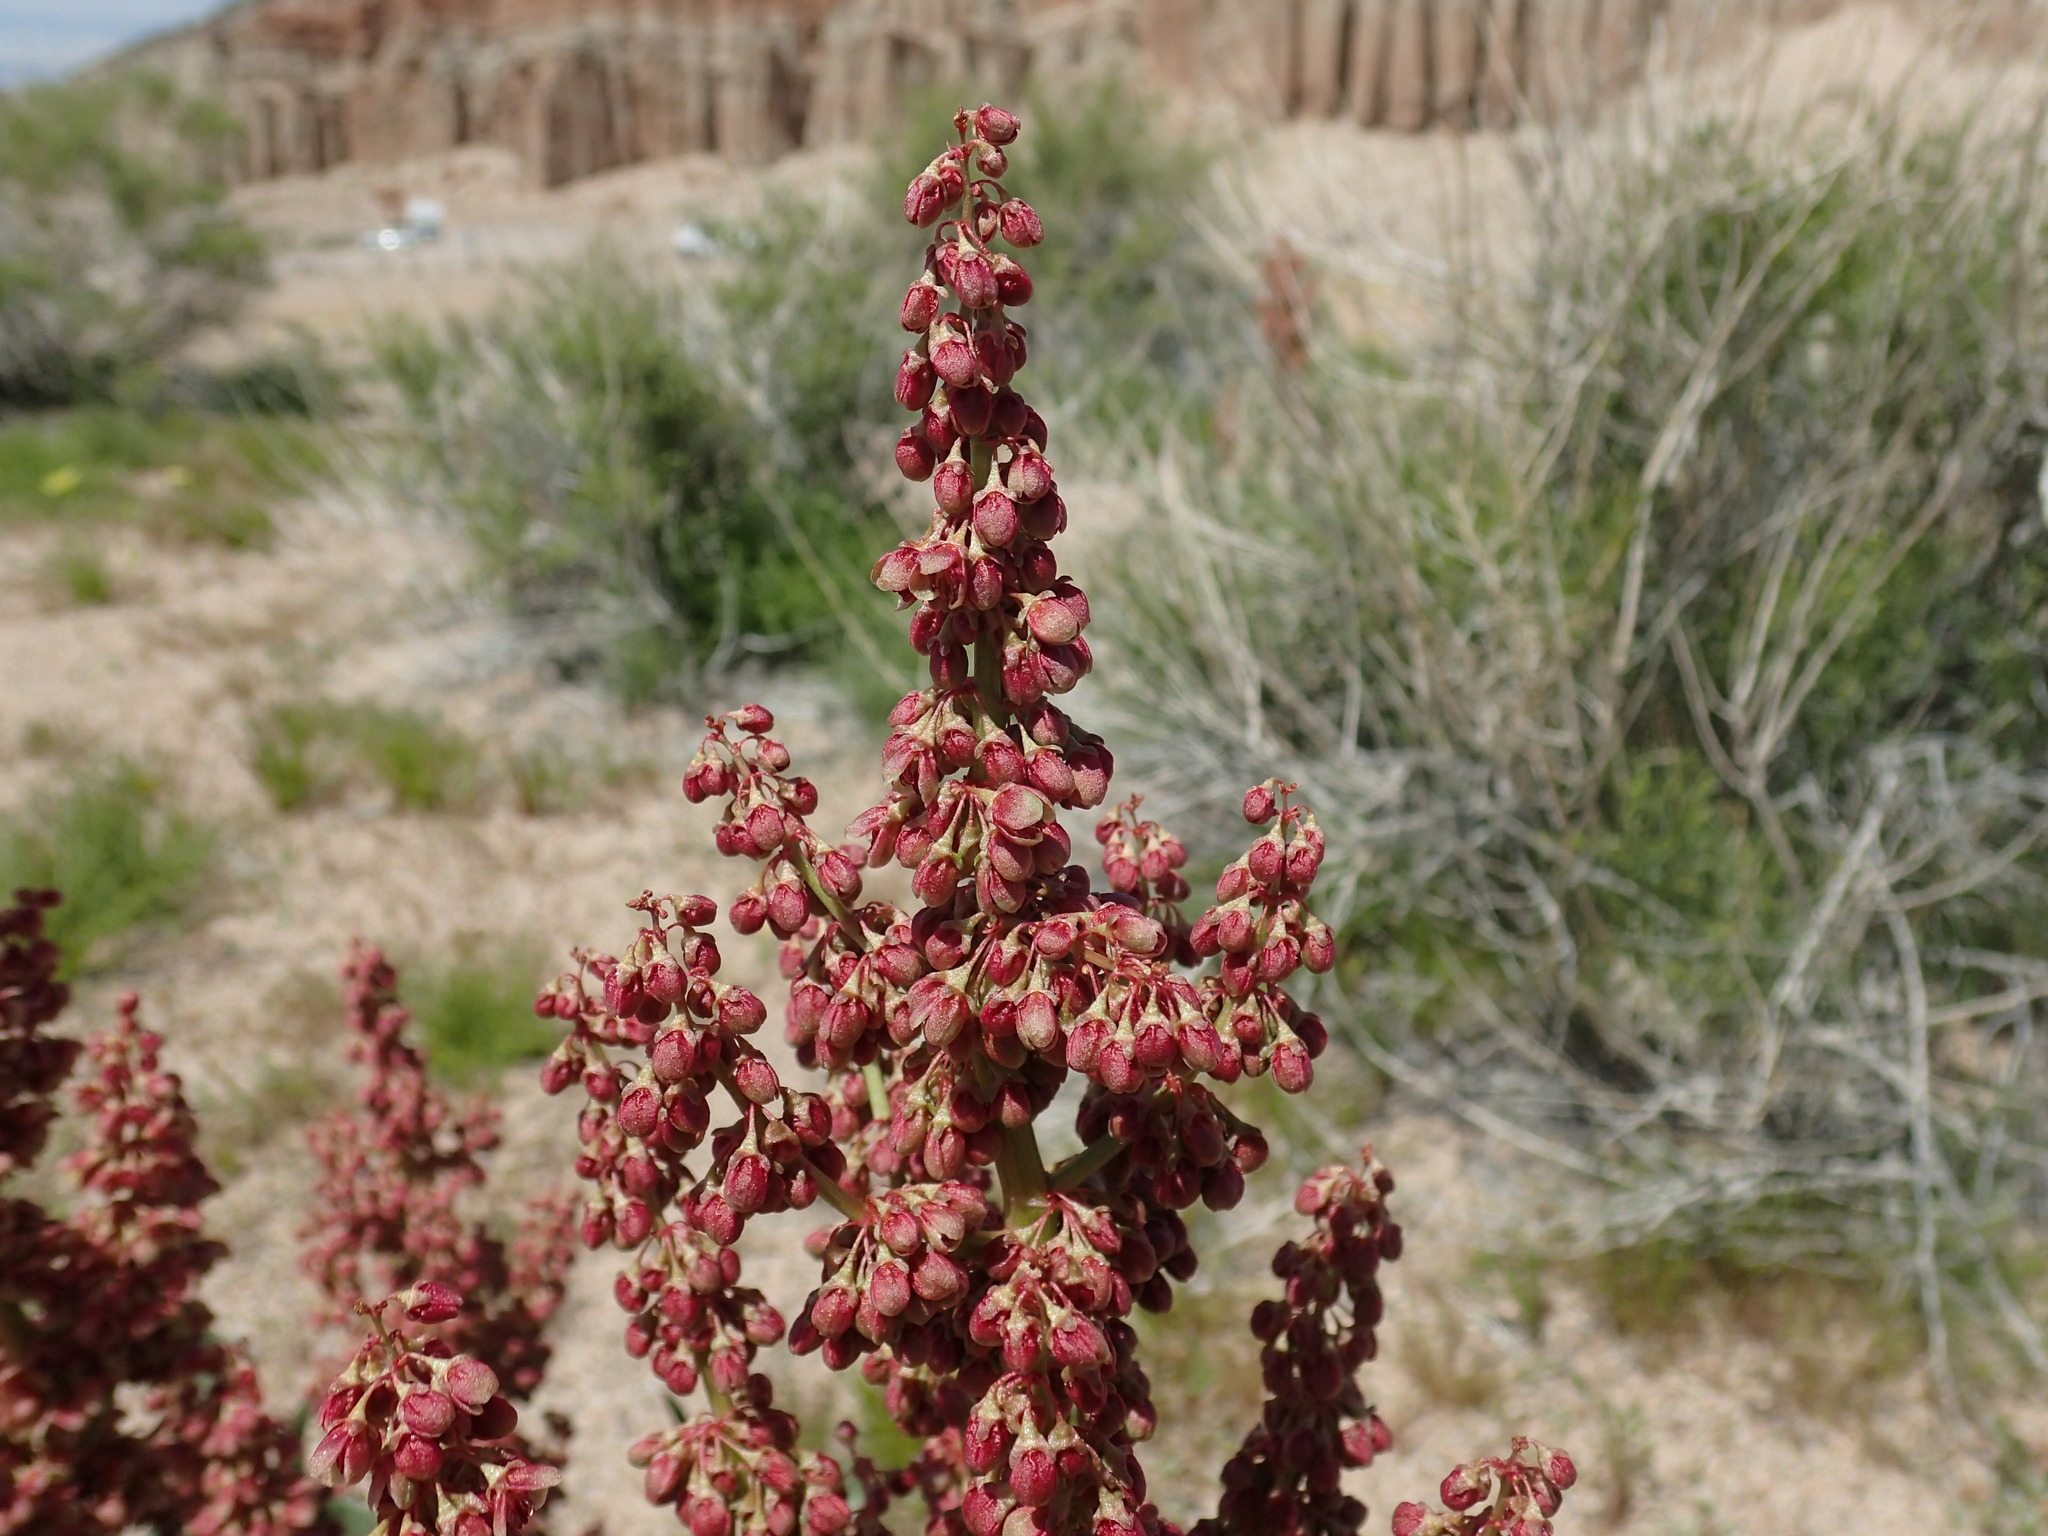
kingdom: Plantae
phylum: Tracheophyta
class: Magnoliopsida
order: Caryophyllales
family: Polygonaceae
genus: Rumex
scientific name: Rumex hymenosepalus
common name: Ganagra
